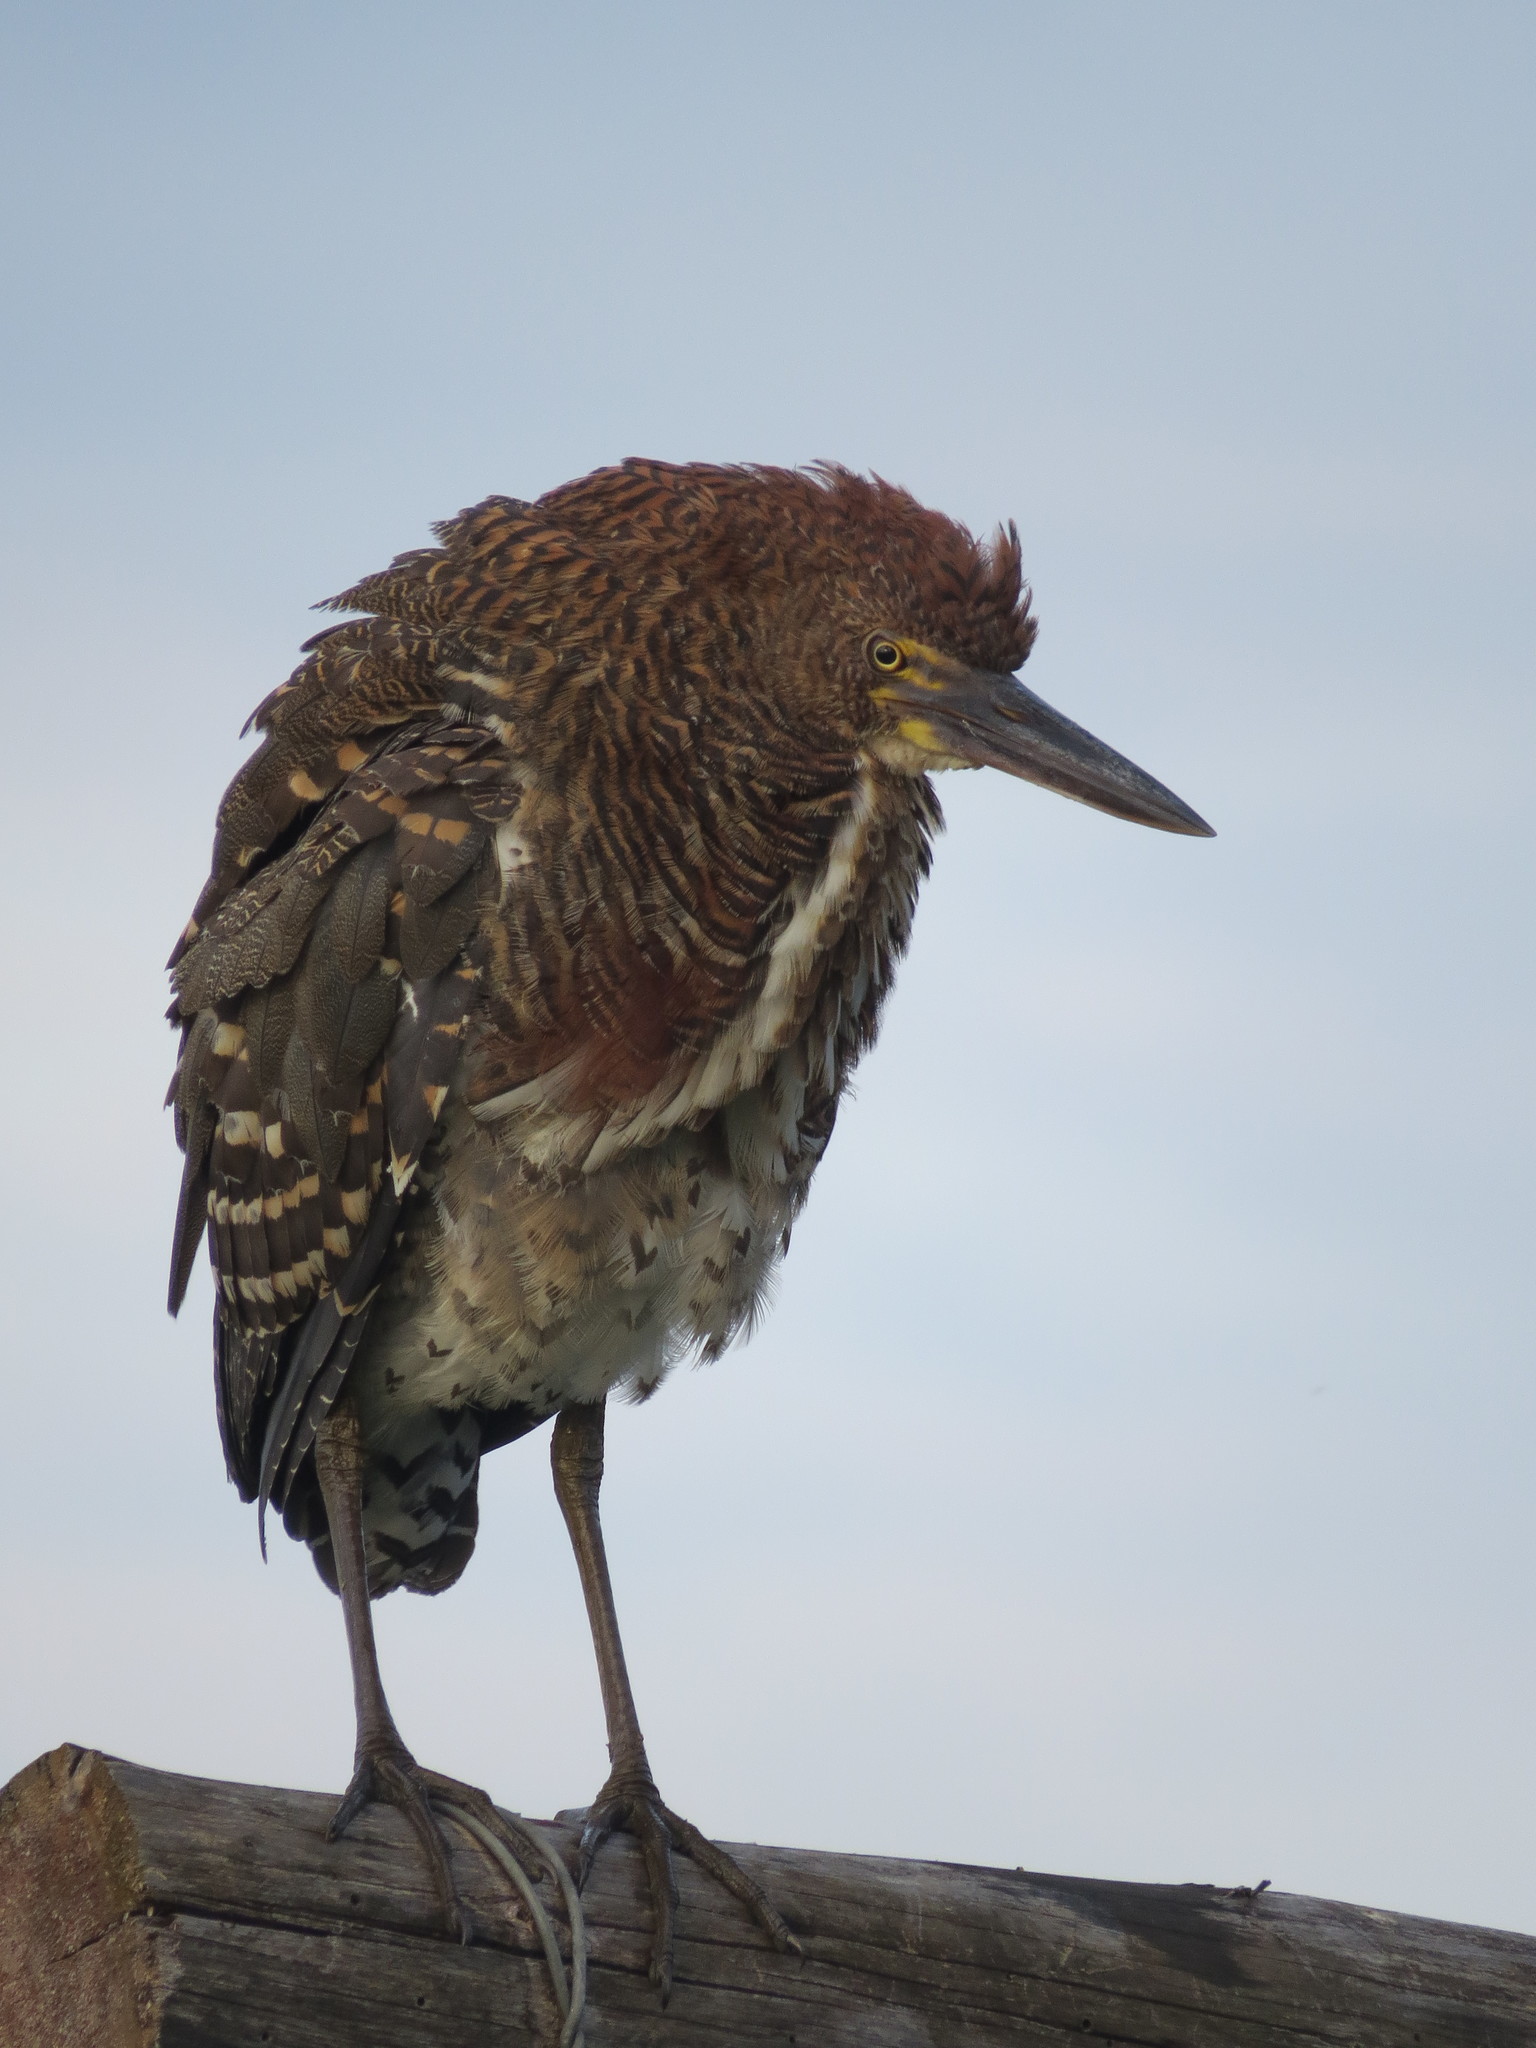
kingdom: Animalia
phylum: Chordata
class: Aves
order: Pelecaniformes
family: Ardeidae
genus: Tigrisoma
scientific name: Tigrisoma lineatum
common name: Rufescent tiger-heron
